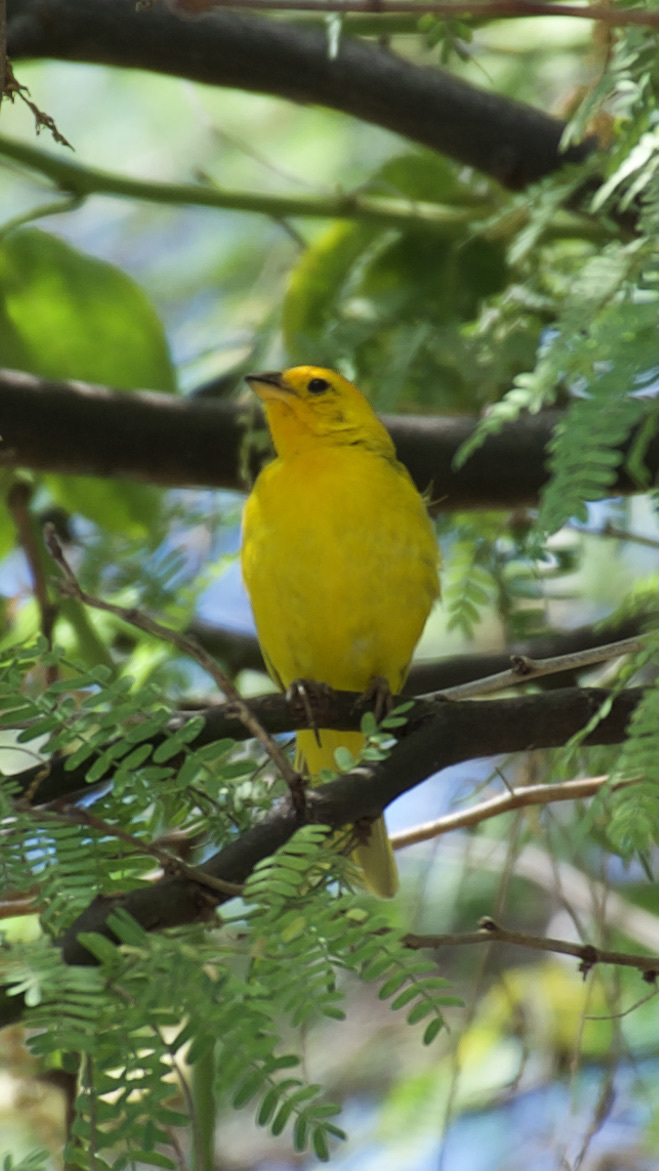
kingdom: Animalia
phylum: Chordata
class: Aves
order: Passeriformes
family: Thraupidae
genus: Sicalis
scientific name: Sicalis flaveola
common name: Saffron finch
